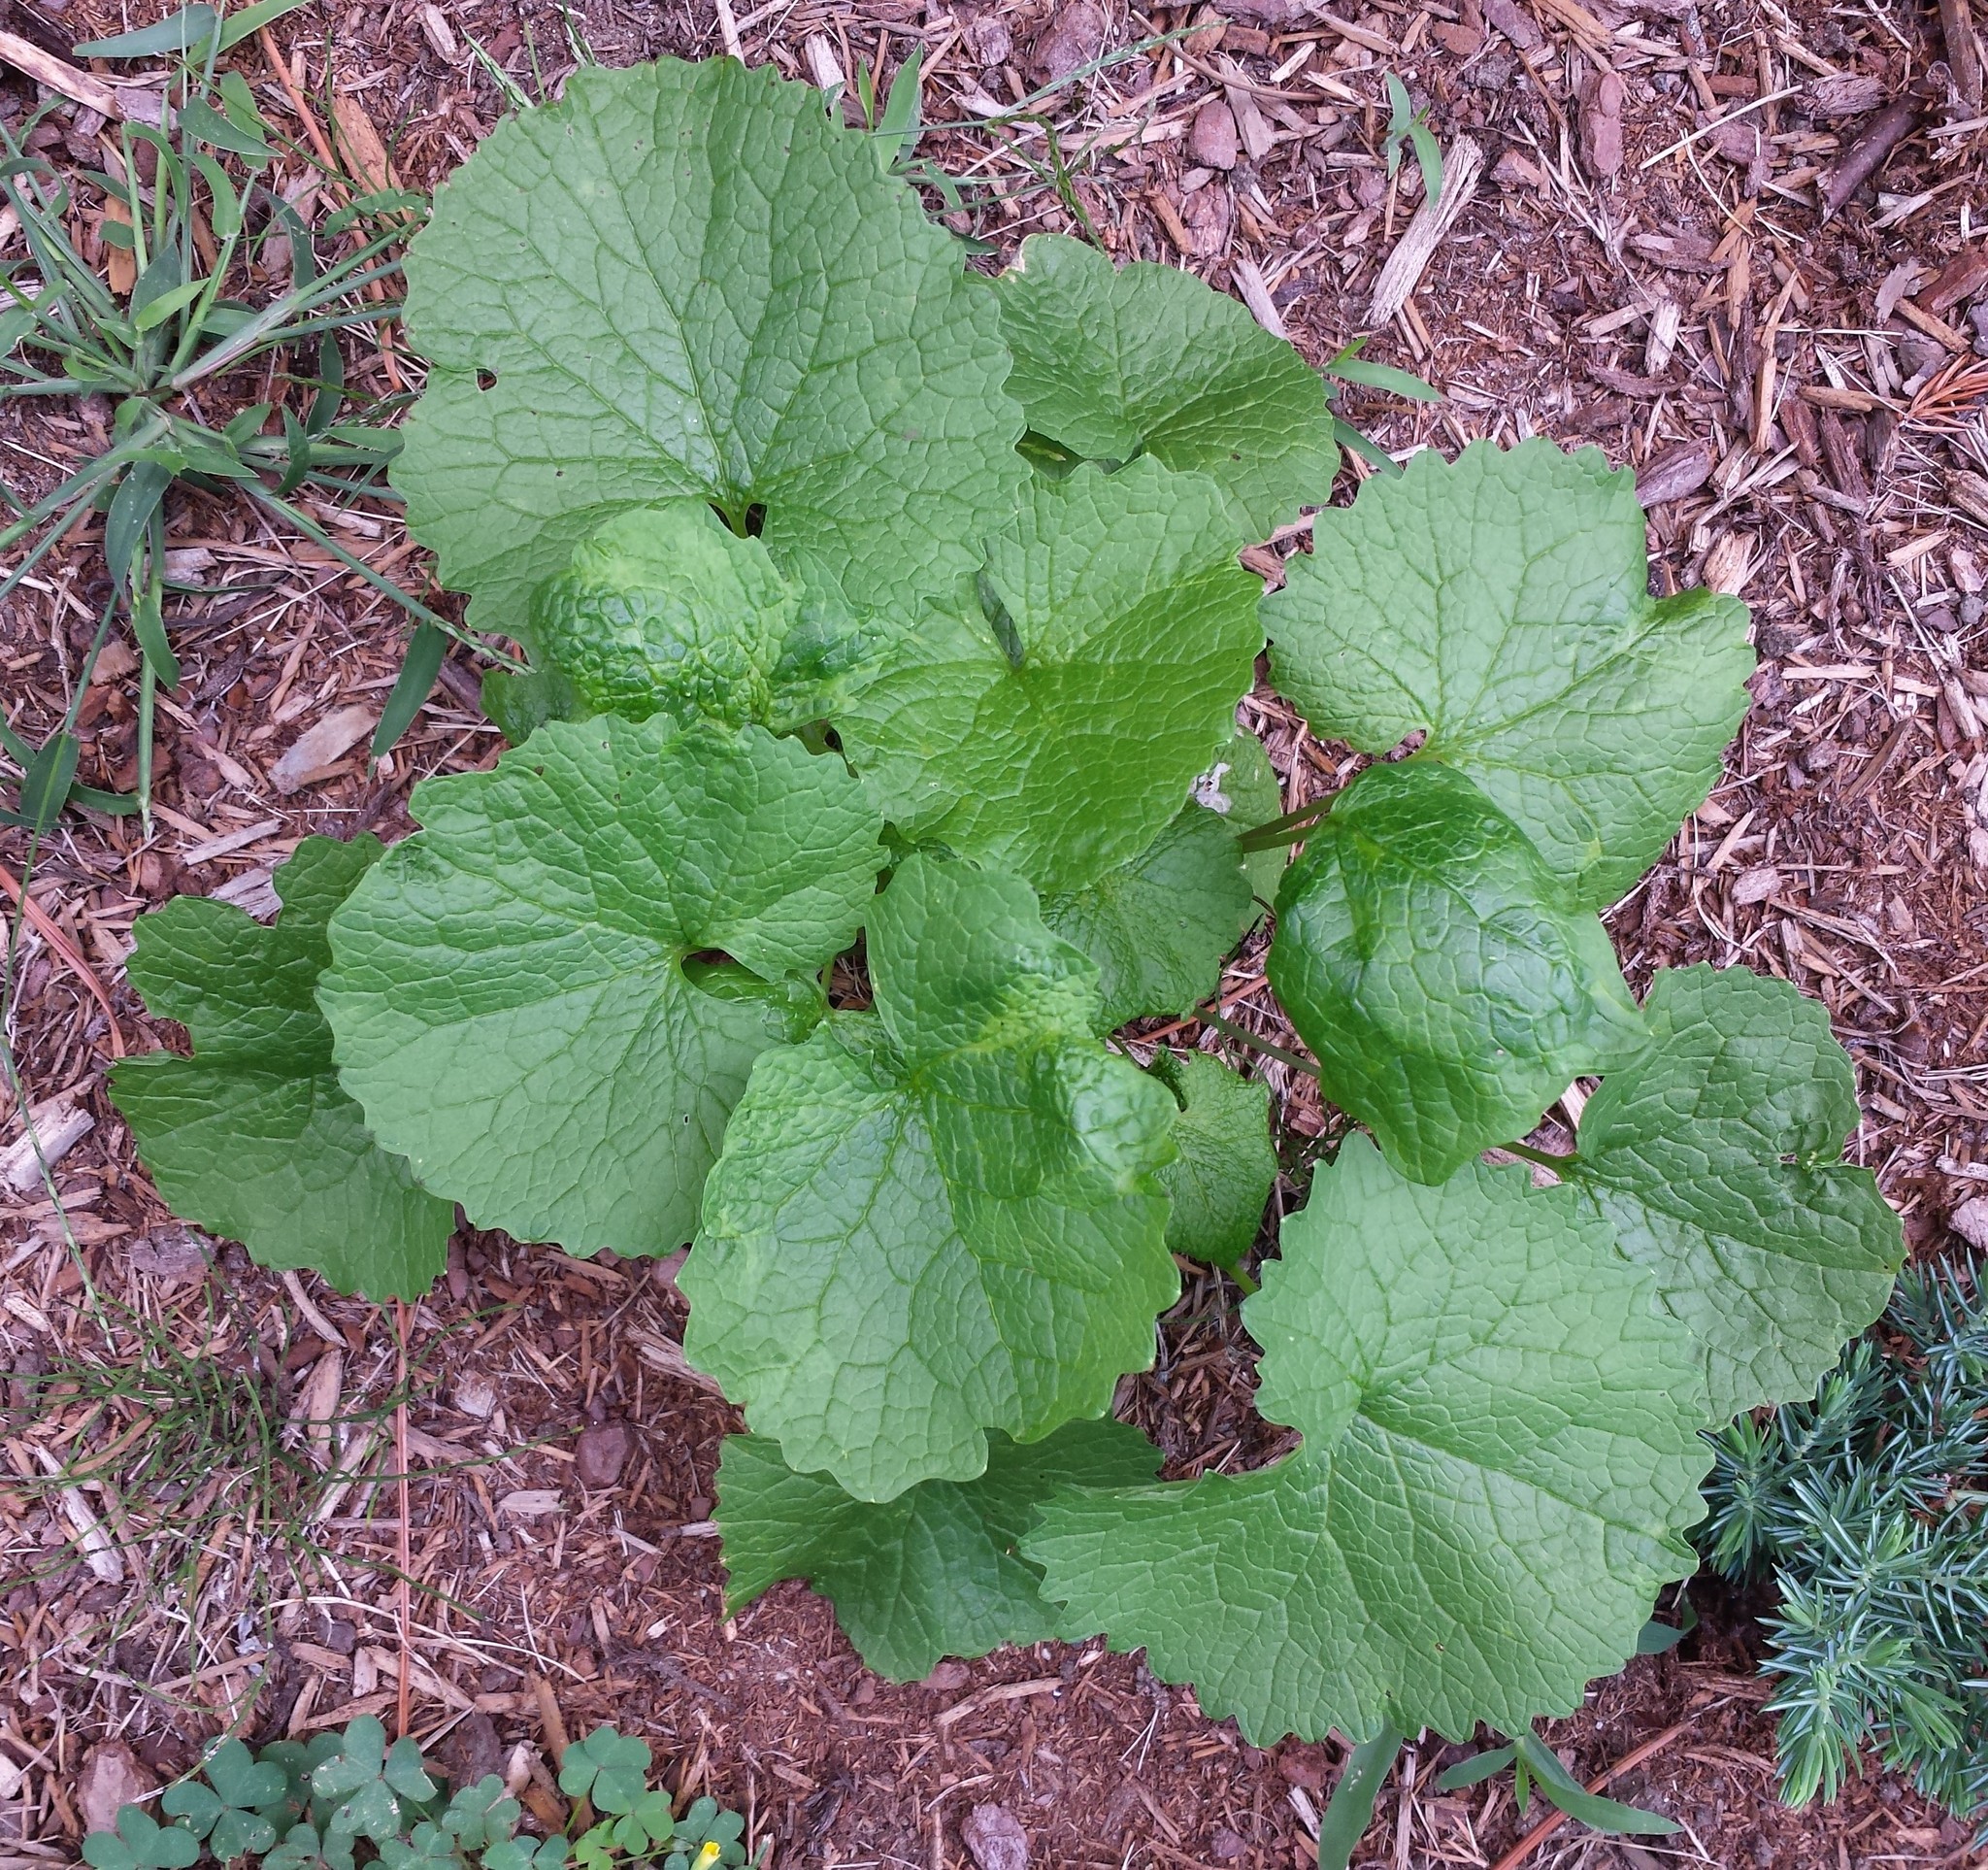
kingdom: Plantae
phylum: Tracheophyta
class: Magnoliopsida
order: Brassicales
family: Brassicaceae
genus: Alliaria
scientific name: Alliaria petiolata
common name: Garlic mustard
